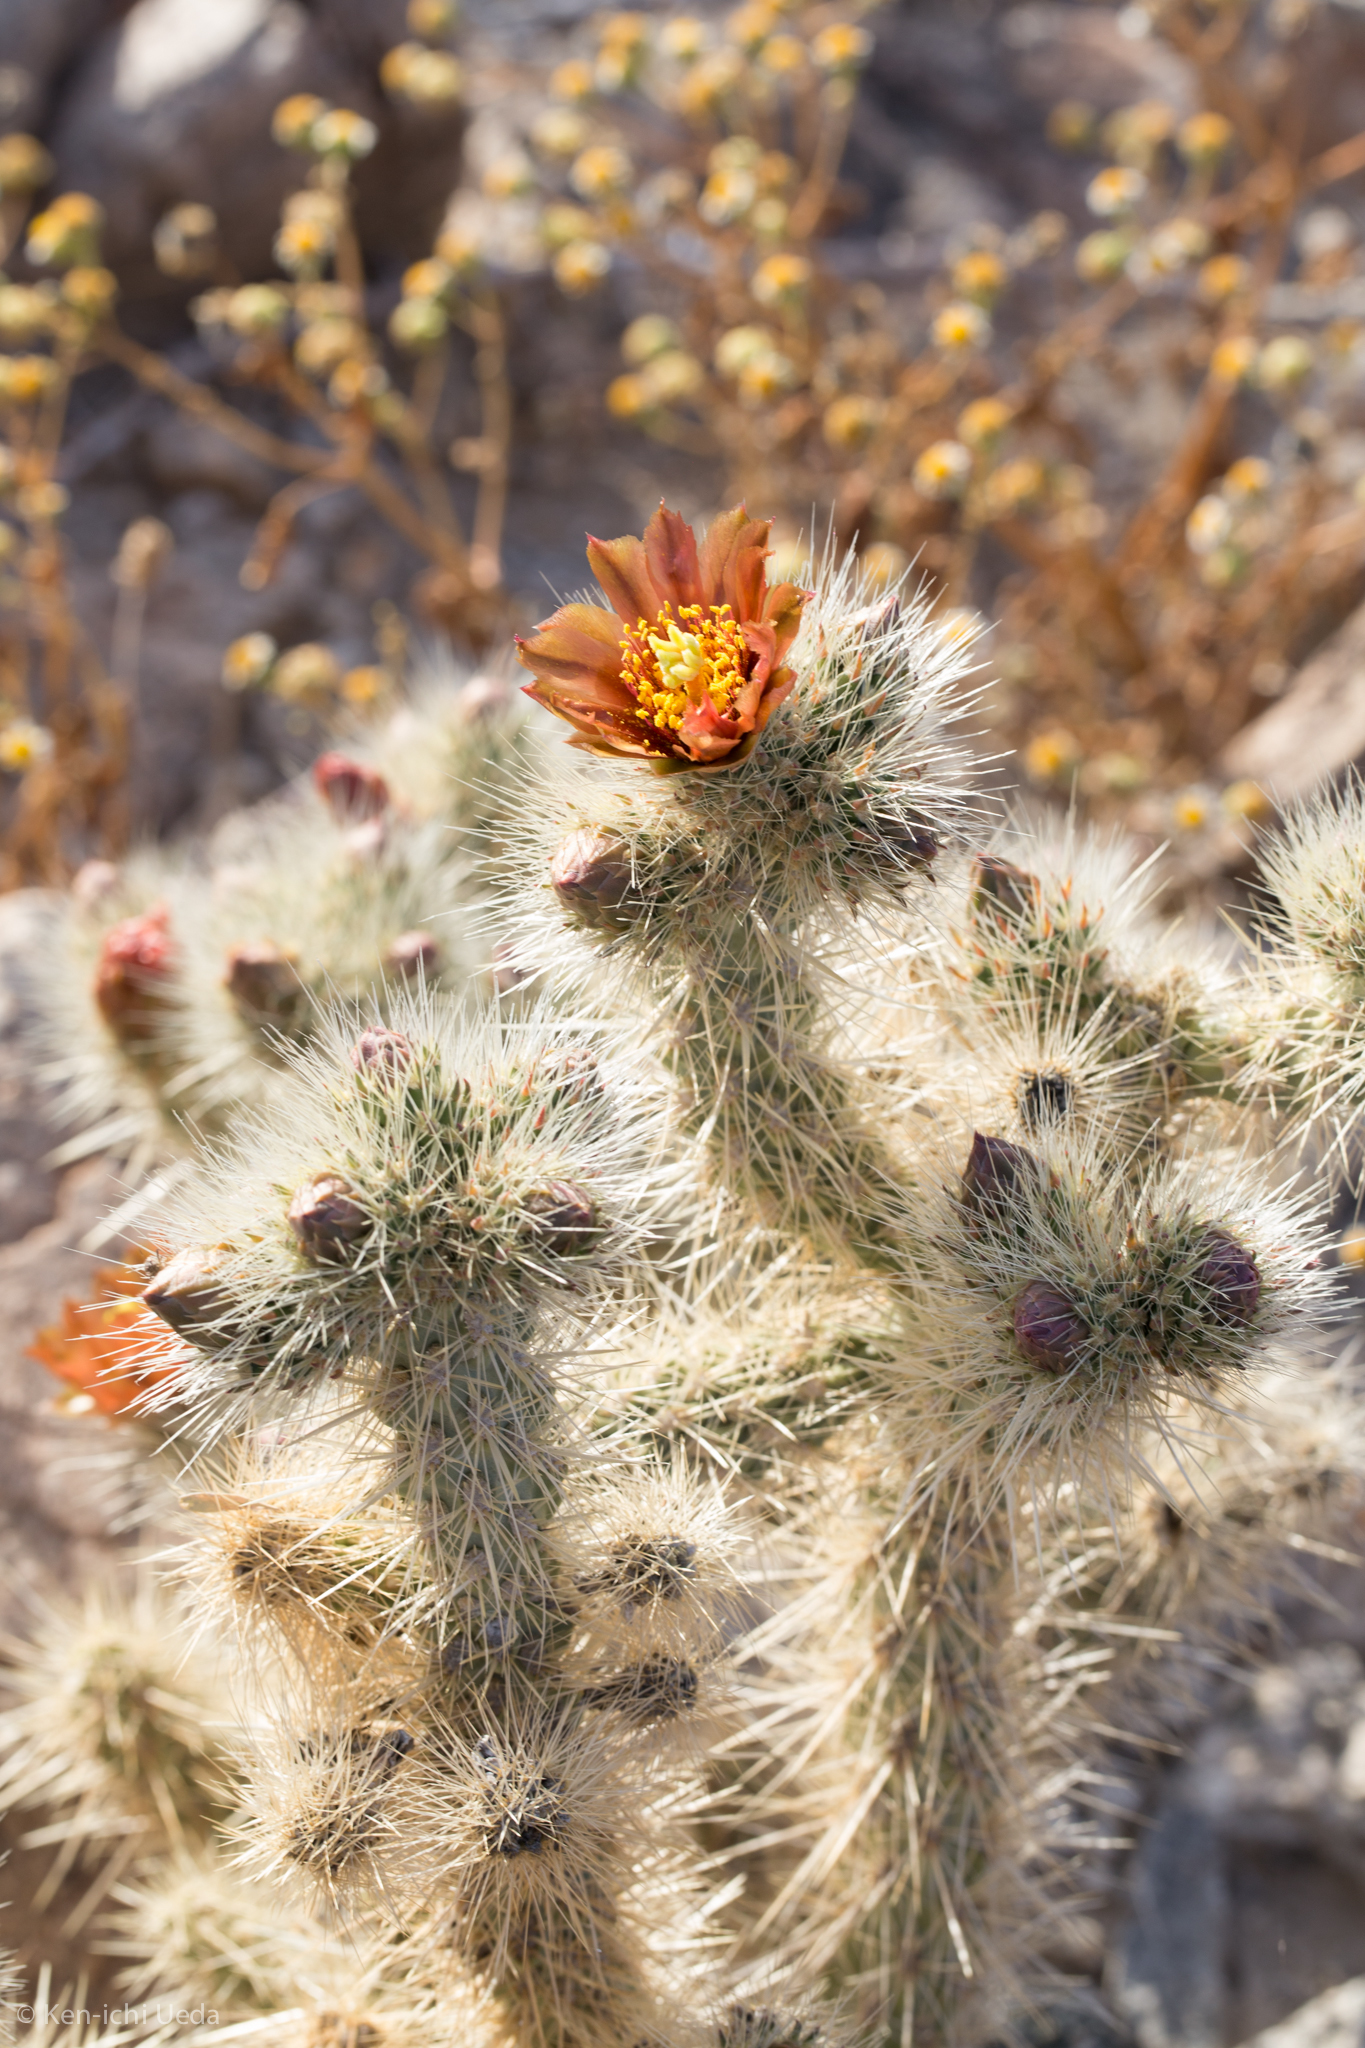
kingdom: Plantae
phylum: Tracheophyta
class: Magnoliopsida
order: Caryophyllales
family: Cactaceae
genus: Cylindropuntia
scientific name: Cylindropuntia chuckwallensis
